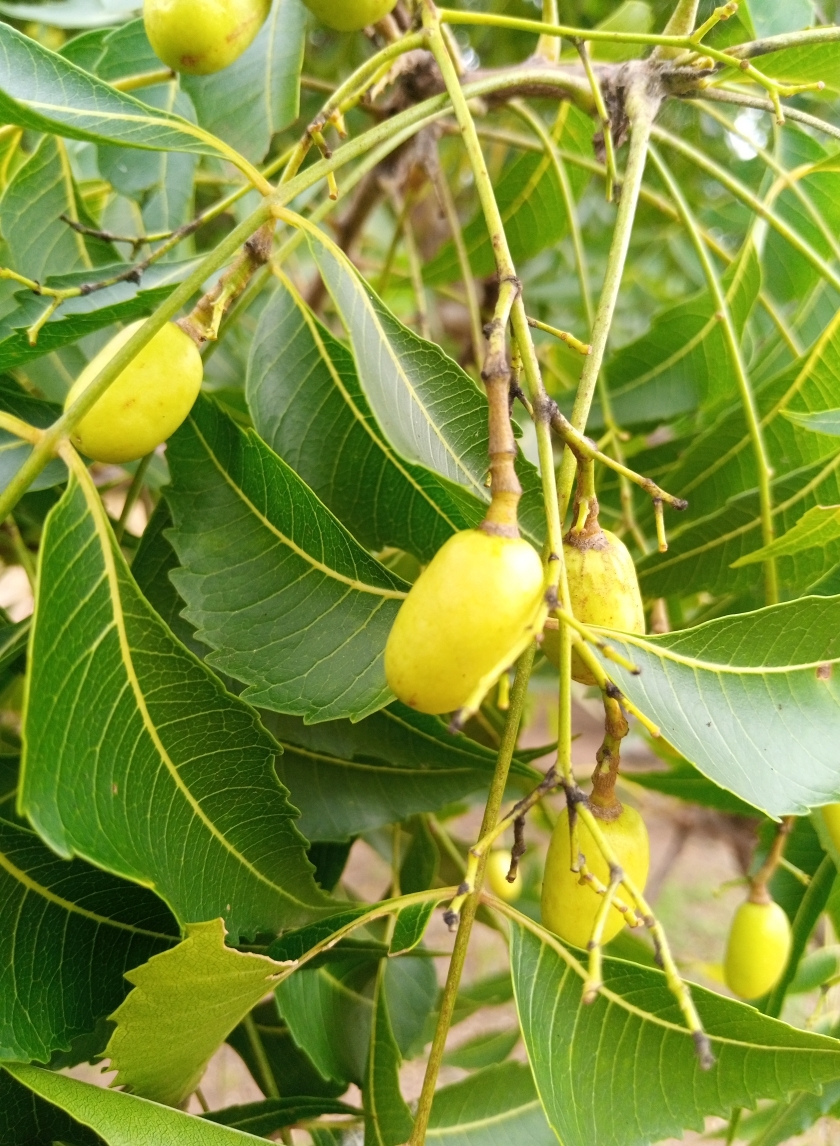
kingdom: Plantae
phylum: Tracheophyta
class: Magnoliopsida
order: Sapindales
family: Meliaceae
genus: Azadirachta
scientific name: Azadirachta indica
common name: Neem
